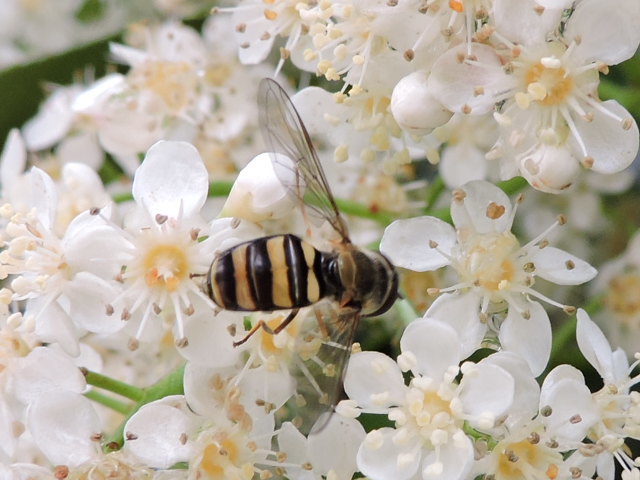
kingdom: Animalia
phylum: Arthropoda
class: Insecta
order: Diptera
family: Syrphidae
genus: Eupeodes
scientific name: Eupeodes
